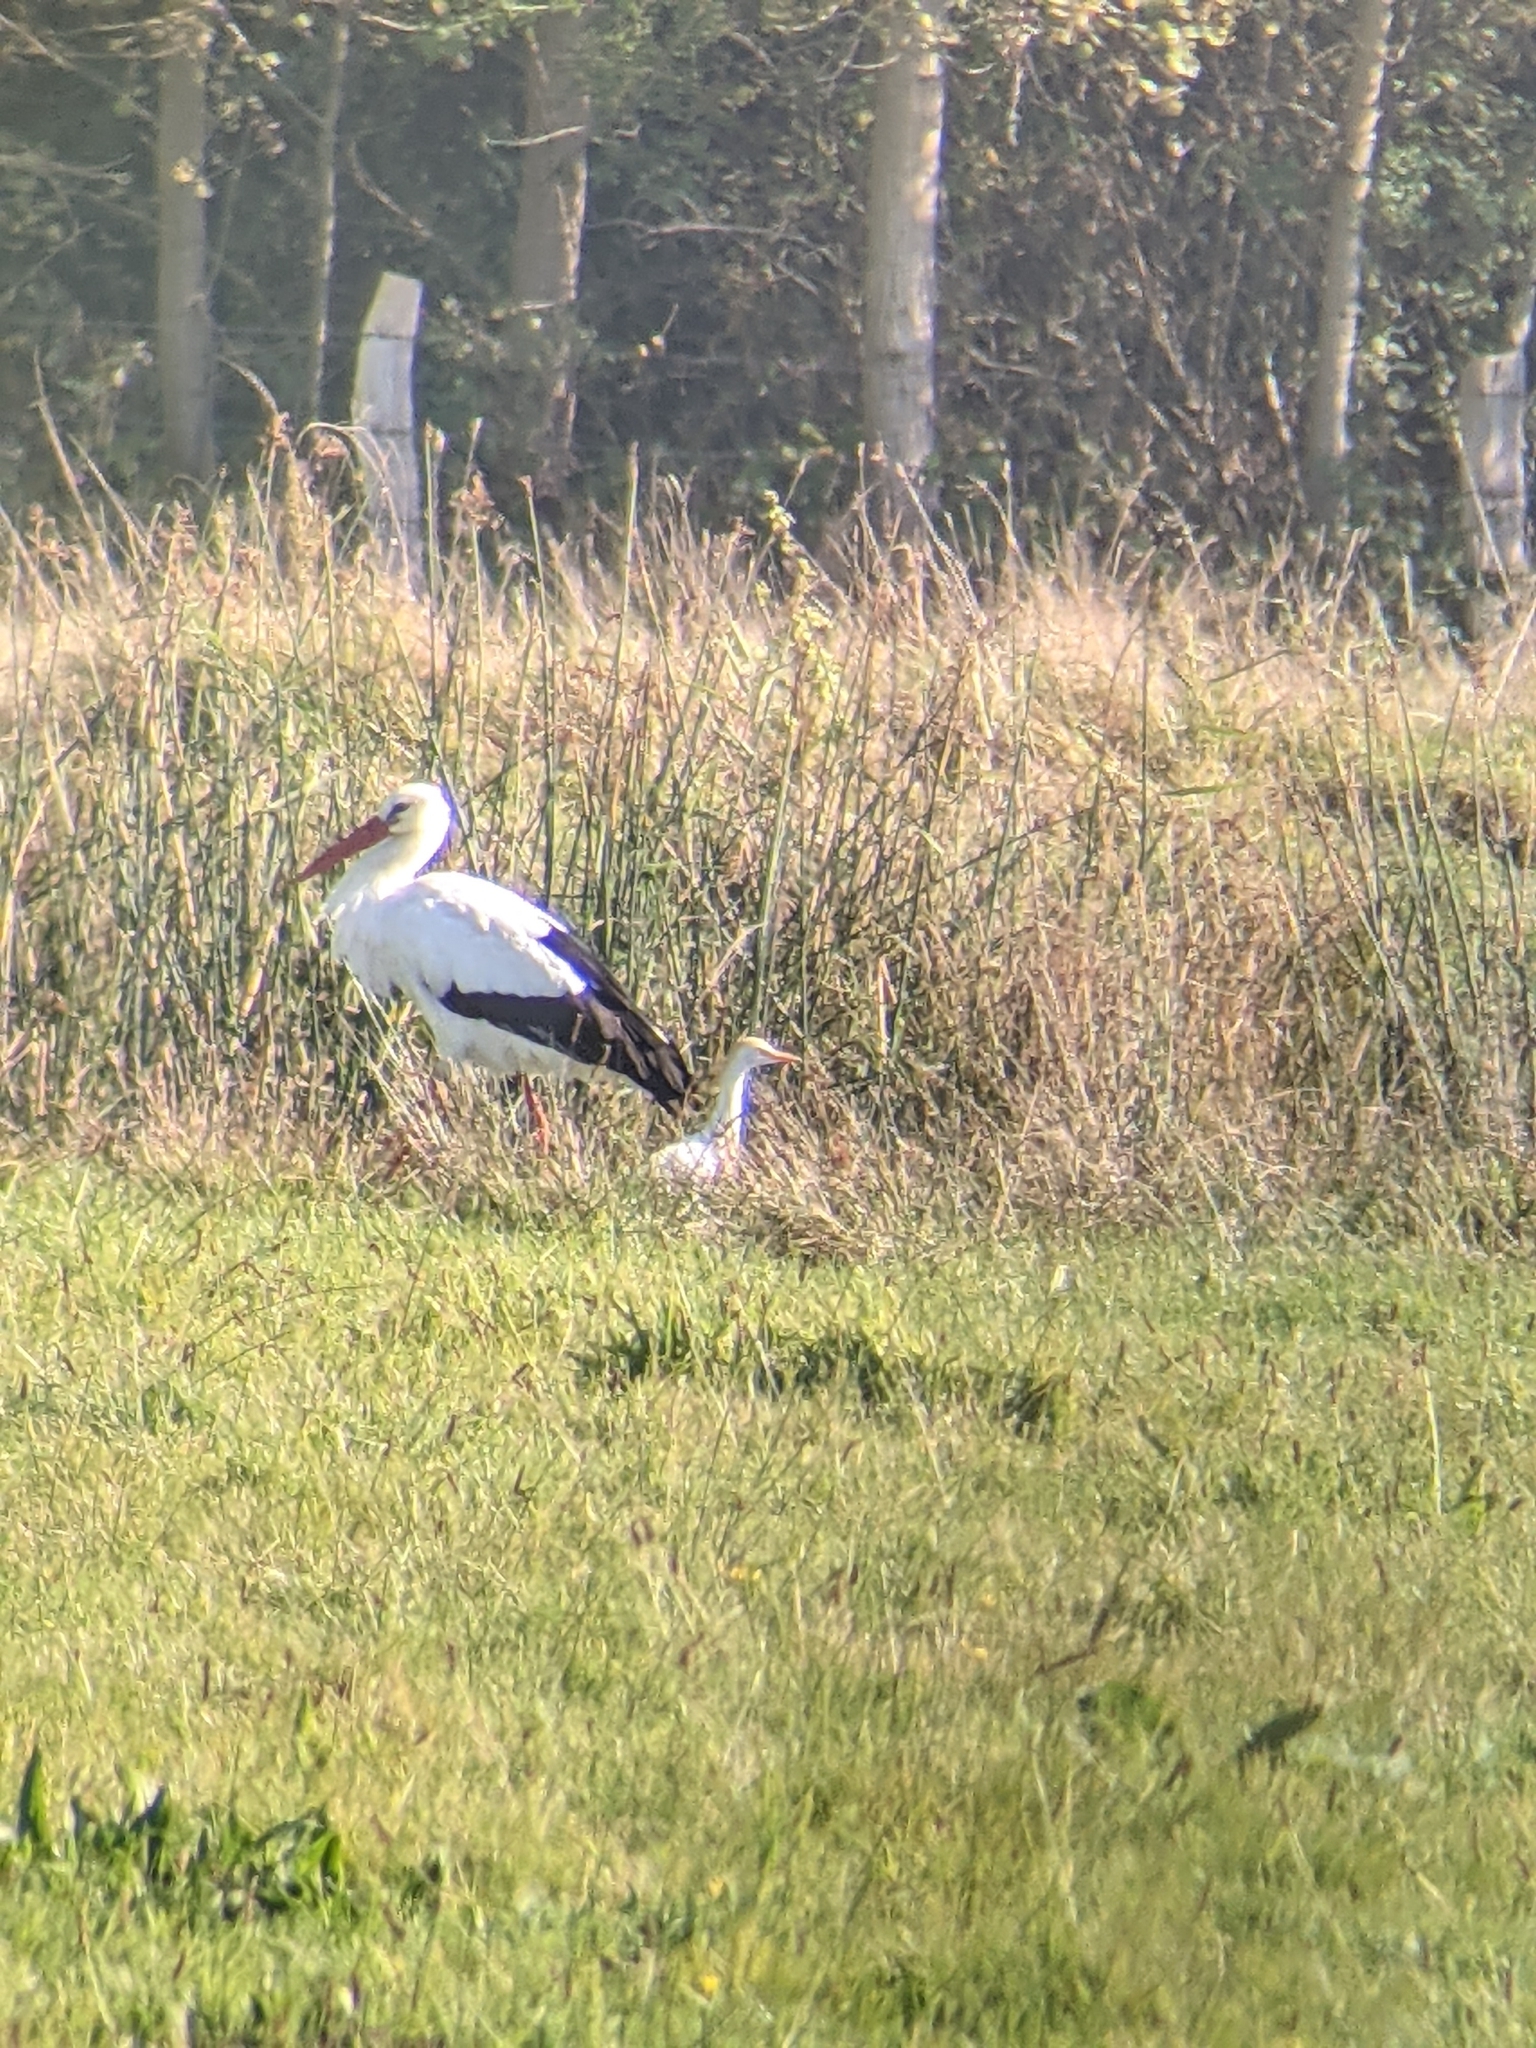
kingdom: Animalia
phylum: Chordata
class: Aves
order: Pelecaniformes
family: Ardeidae
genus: Bubulcus
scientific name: Bubulcus ibis
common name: Cattle egret
